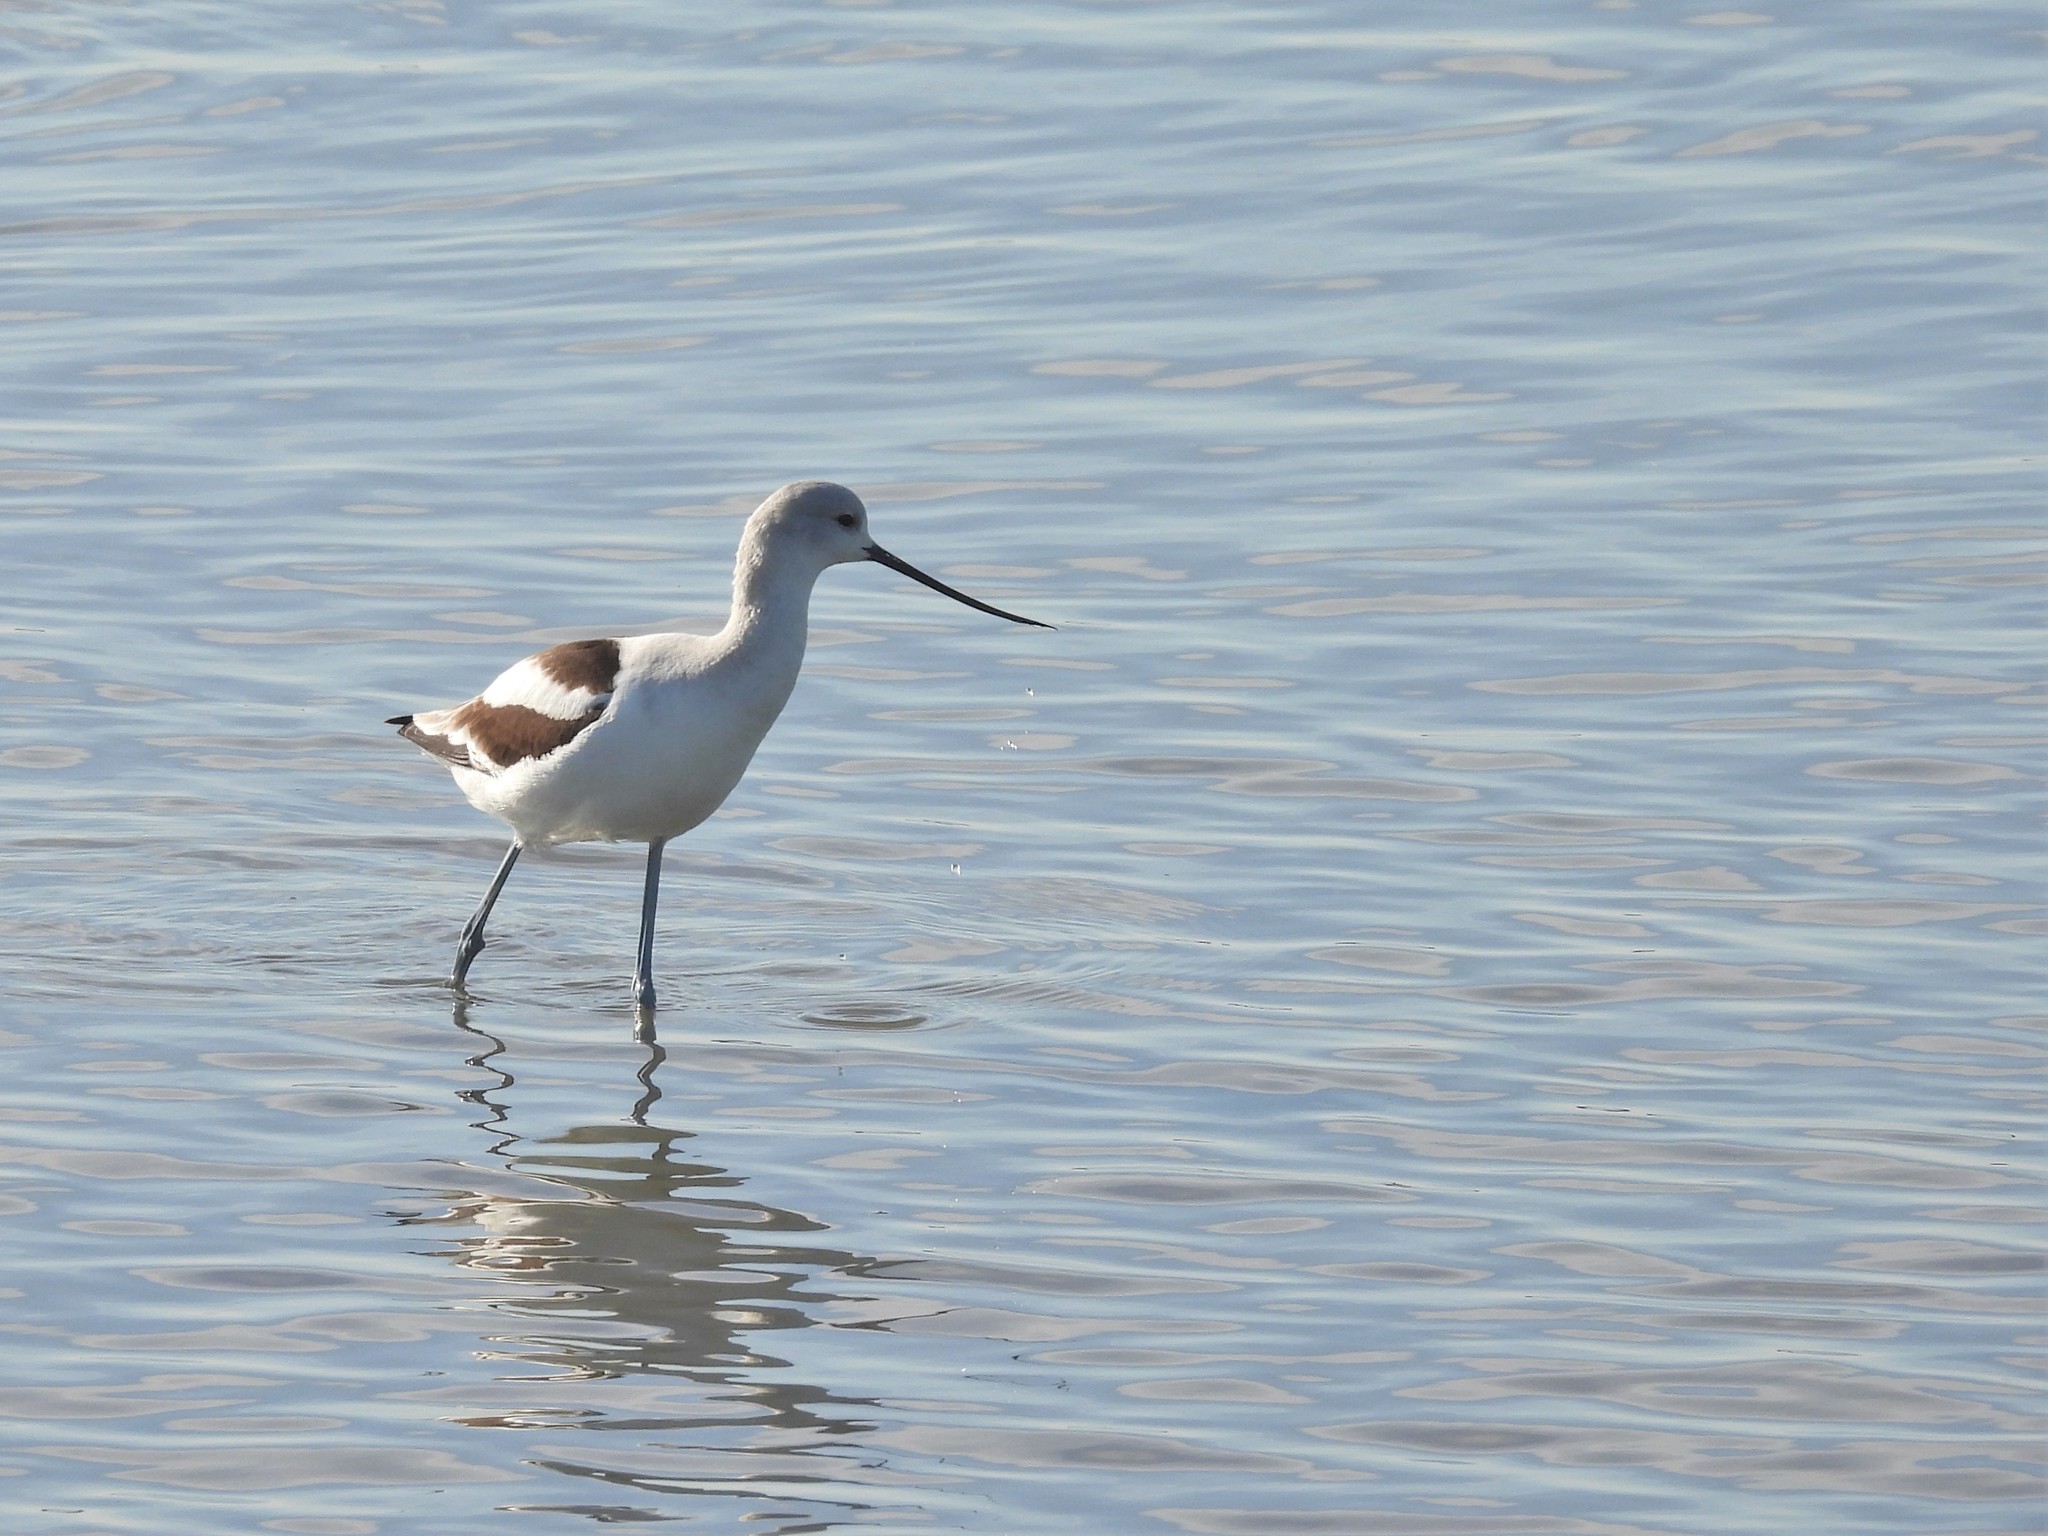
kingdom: Animalia
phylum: Chordata
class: Aves
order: Charadriiformes
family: Recurvirostridae
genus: Recurvirostra
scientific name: Recurvirostra americana
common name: American avocet
